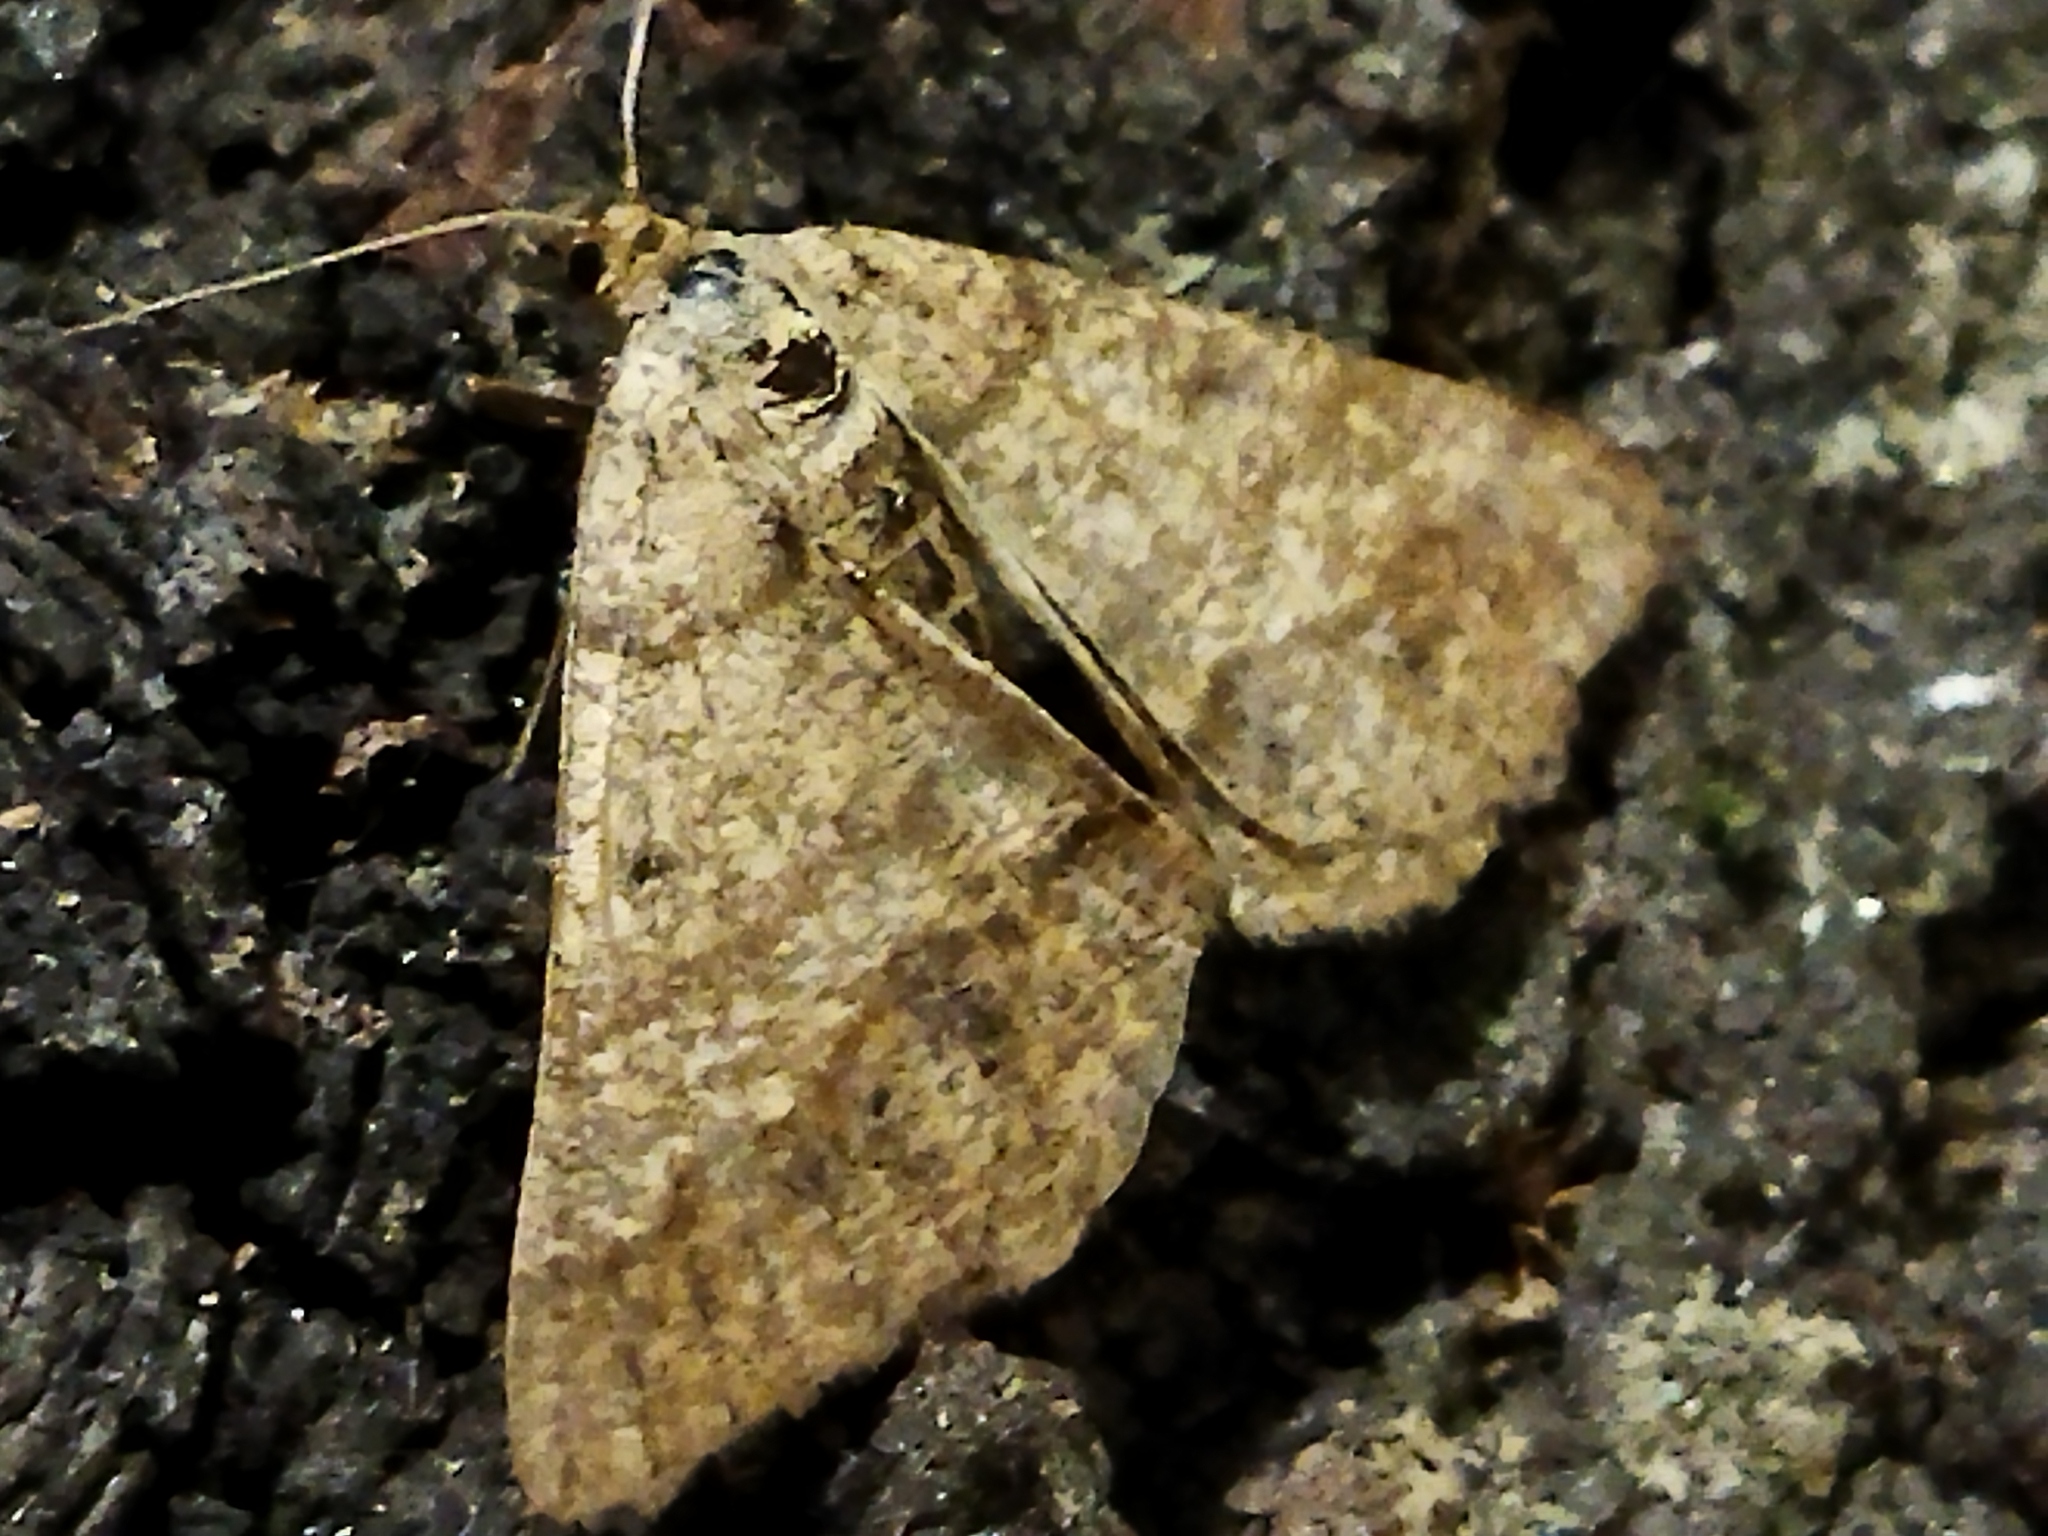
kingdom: Animalia
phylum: Arthropoda
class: Insecta
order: Lepidoptera
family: Geometridae
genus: Tephrina
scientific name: Tephrina murinaria
